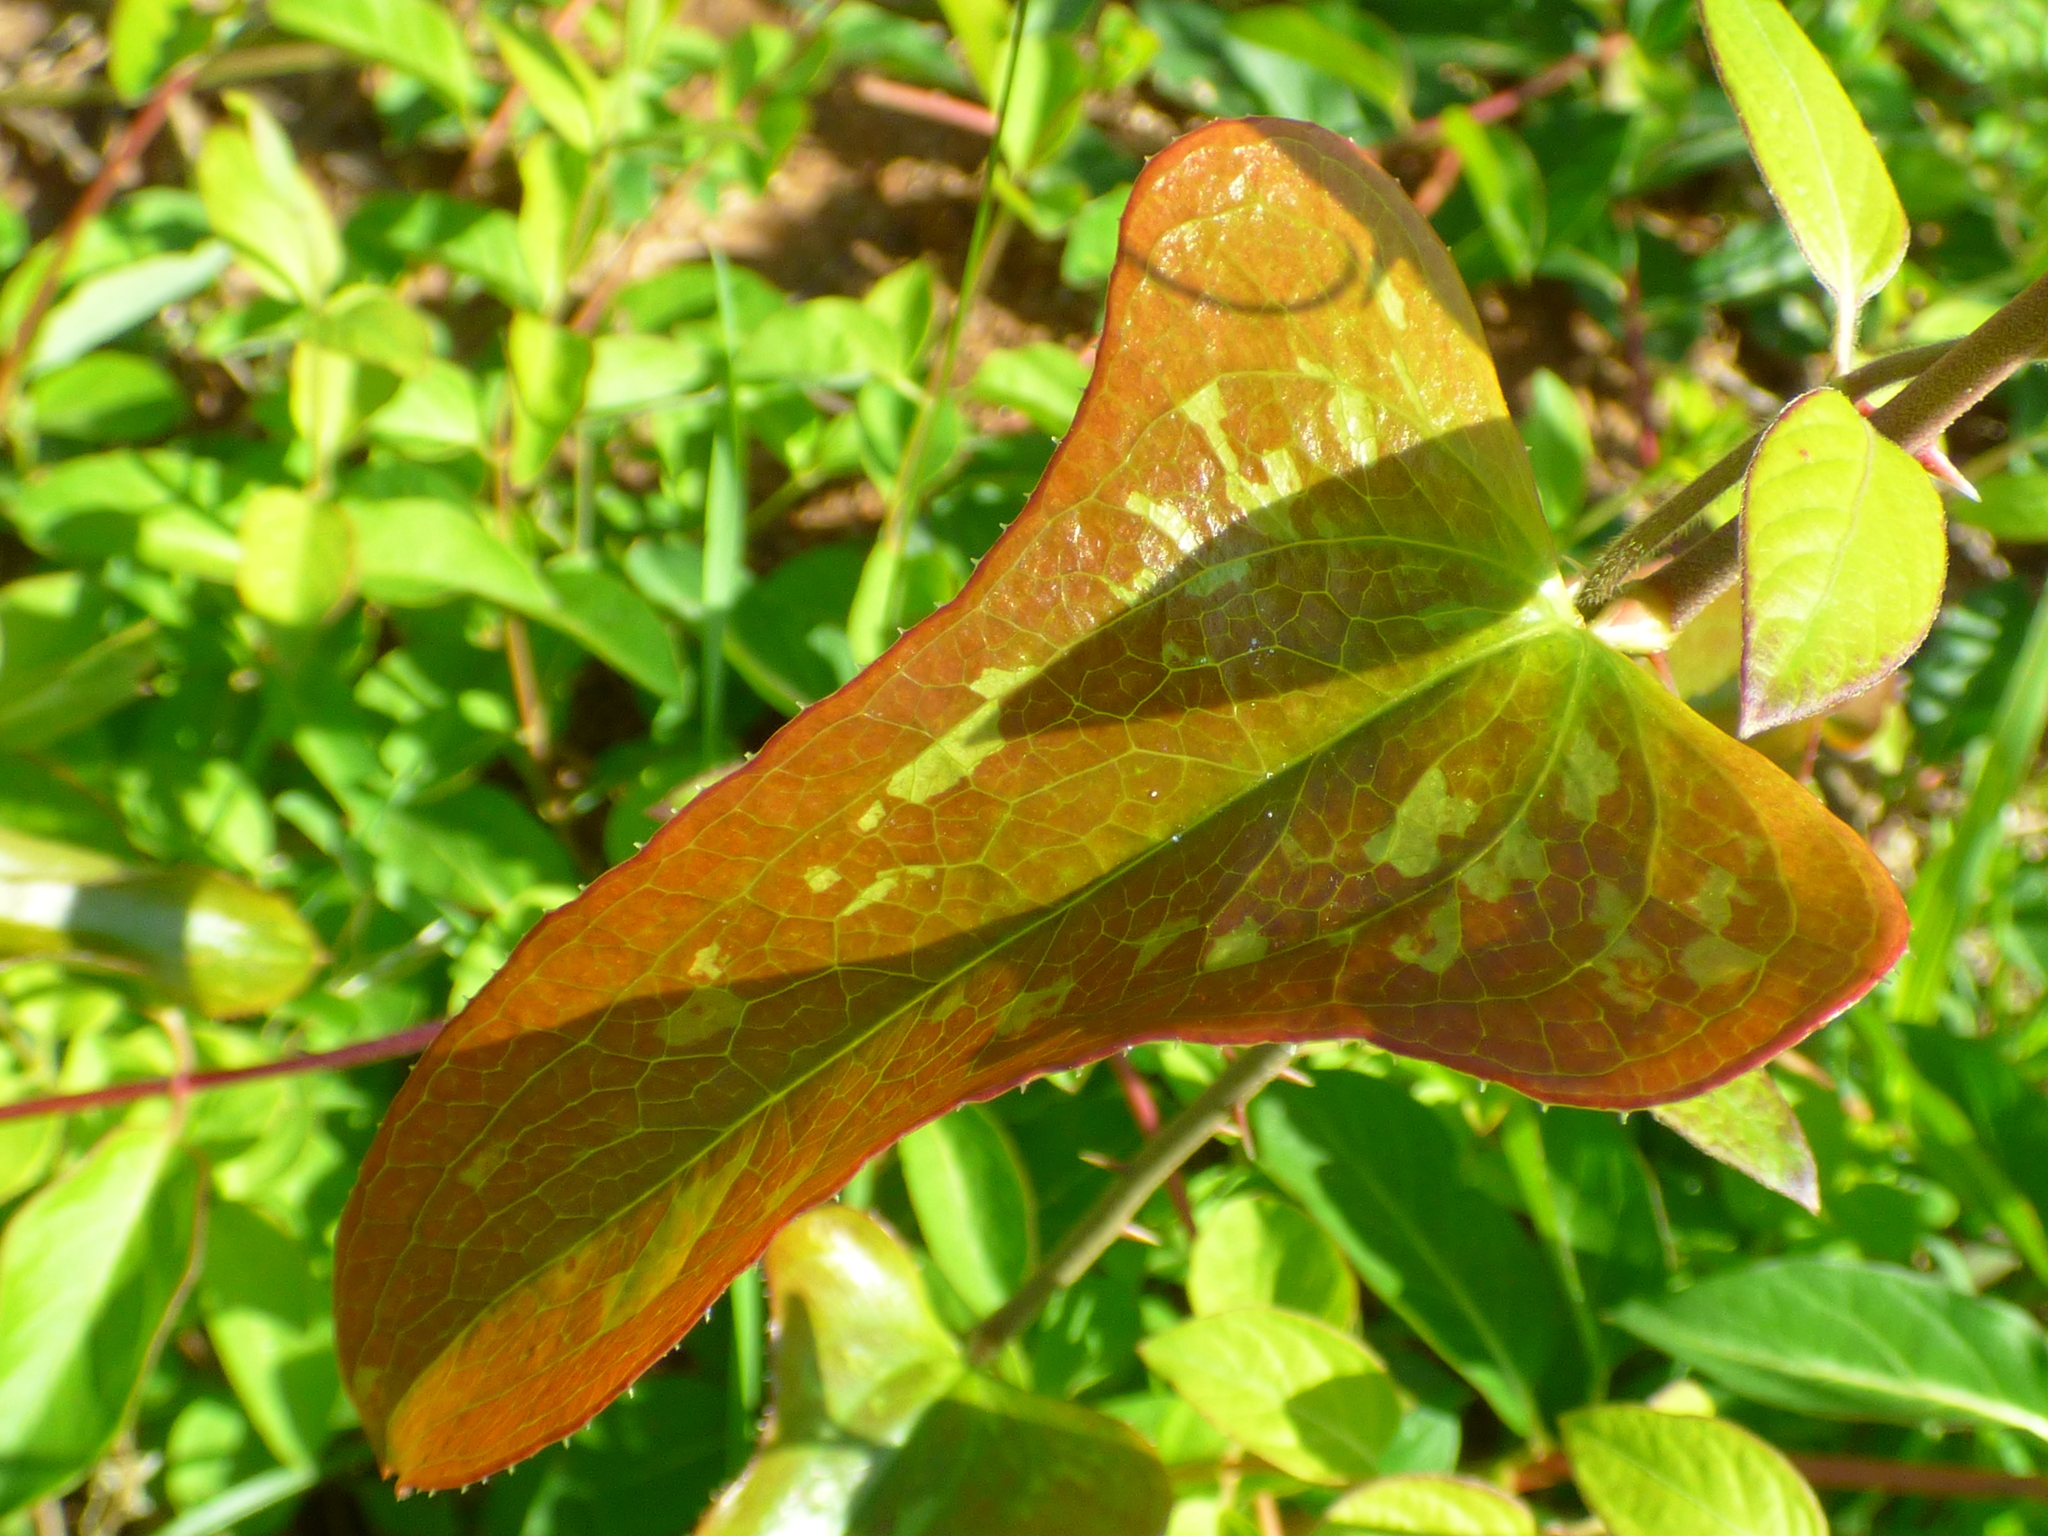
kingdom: Plantae
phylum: Tracheophyta
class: Liliopsida
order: Liliales
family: Smilacaceae
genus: Smilax
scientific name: Smilax bona-nox
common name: Catbrier
